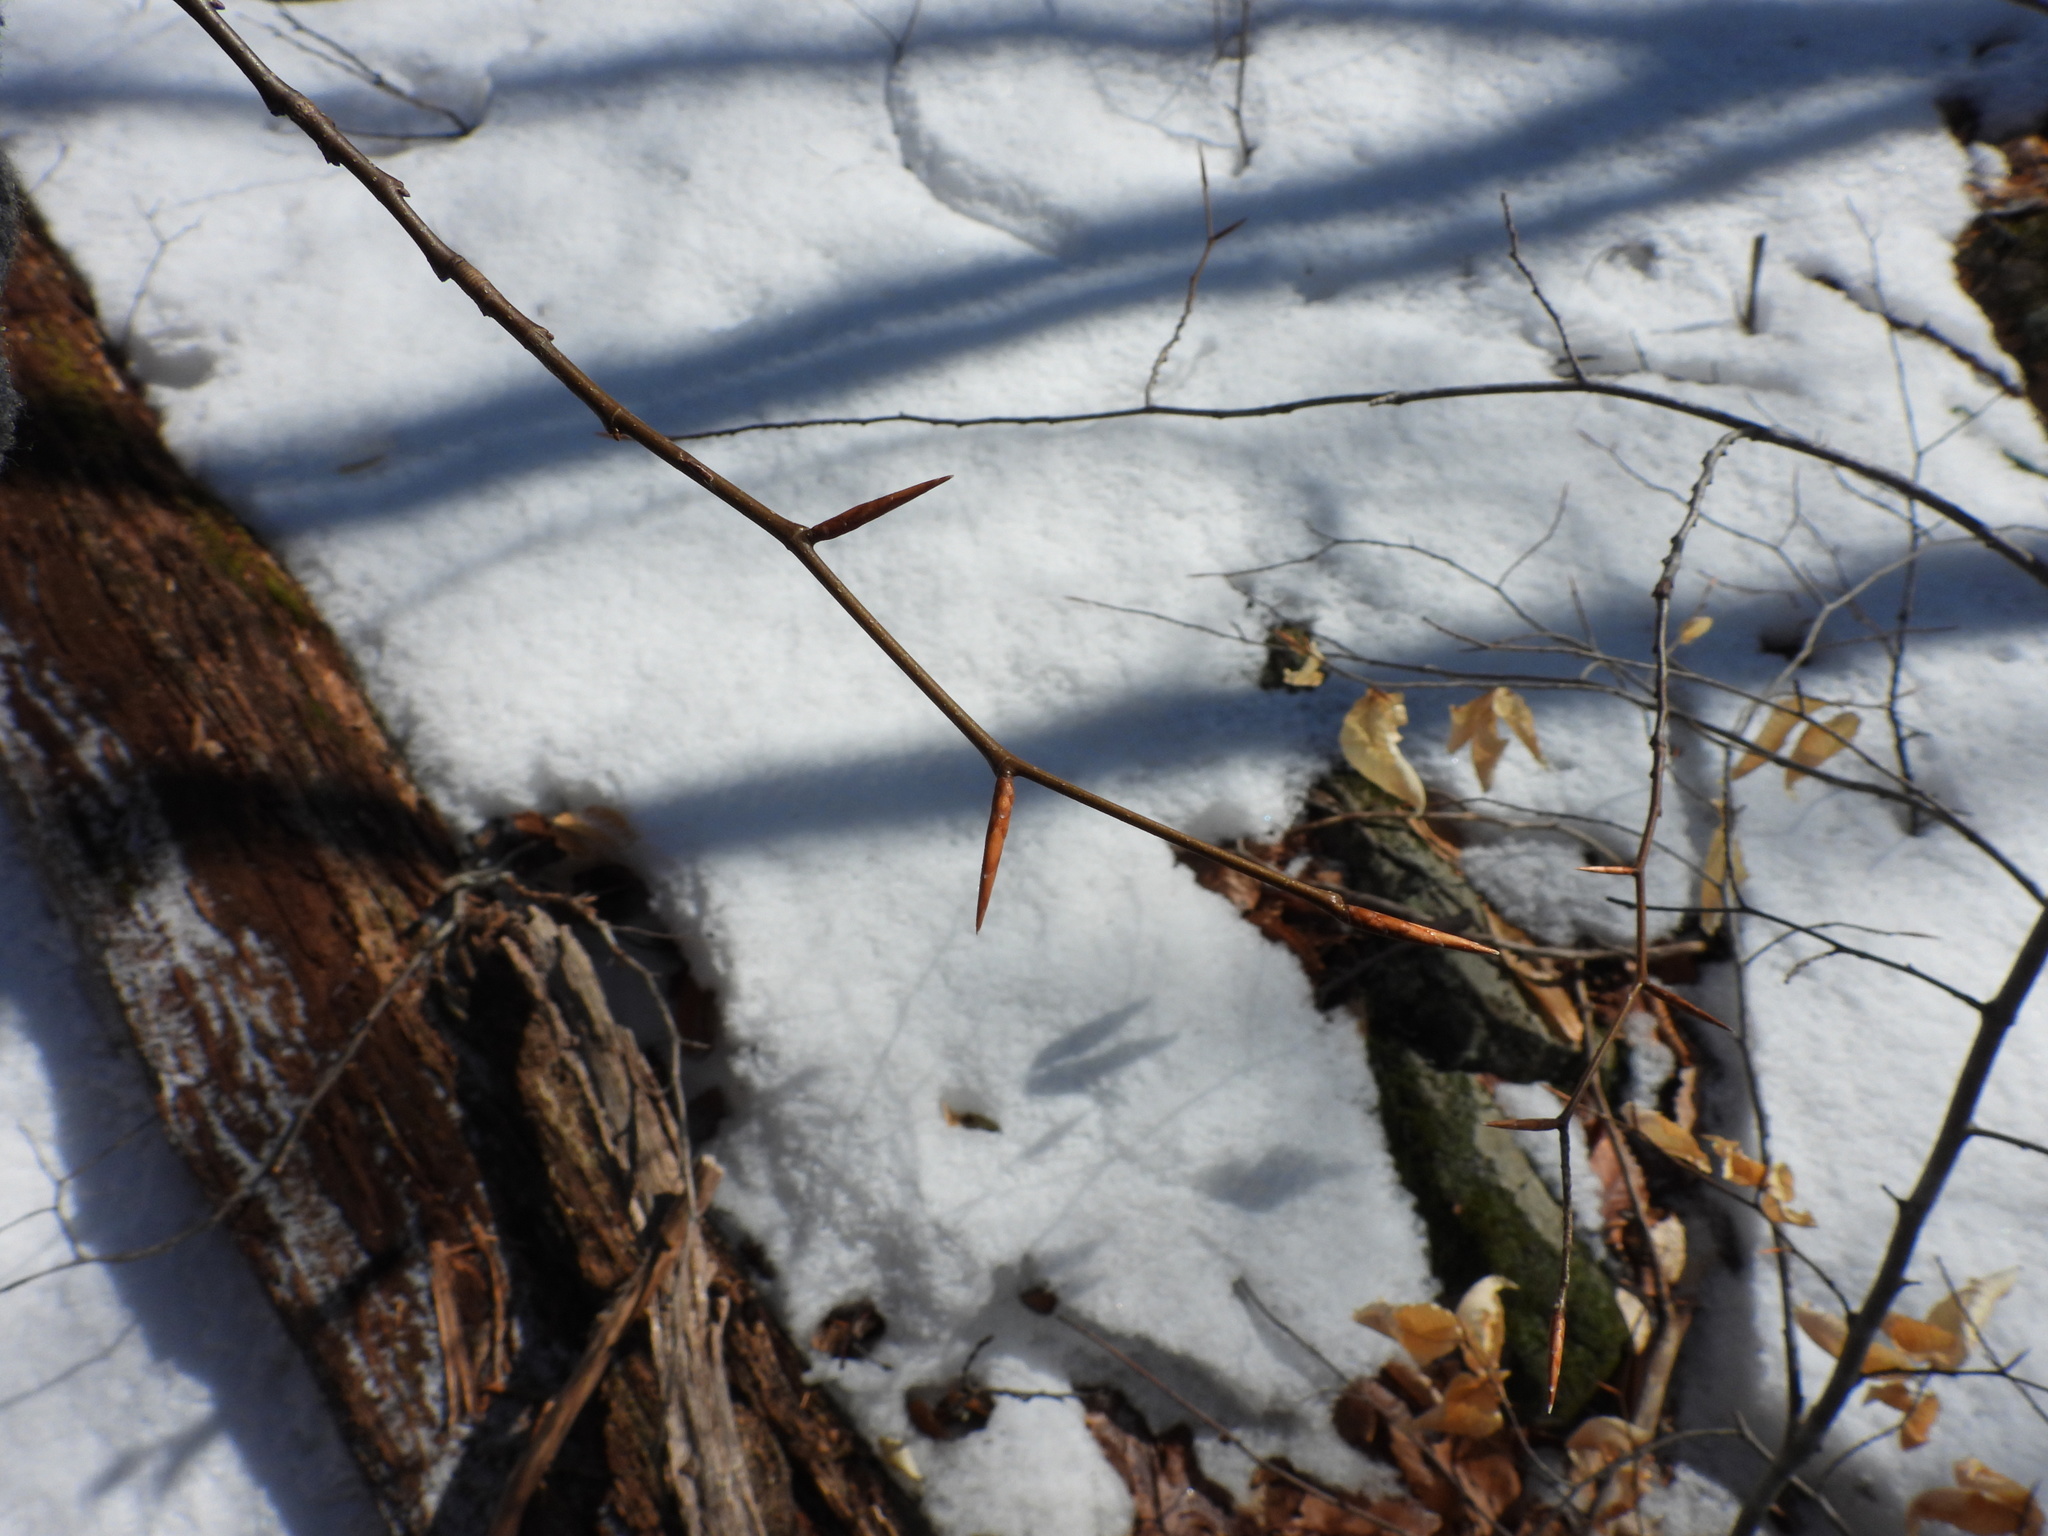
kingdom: Plantae
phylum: Tracheophyta
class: Magnoliopsida
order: Fagales
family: Fagaceae
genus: Fagus
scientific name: Fagus grandifolia
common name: American beech
